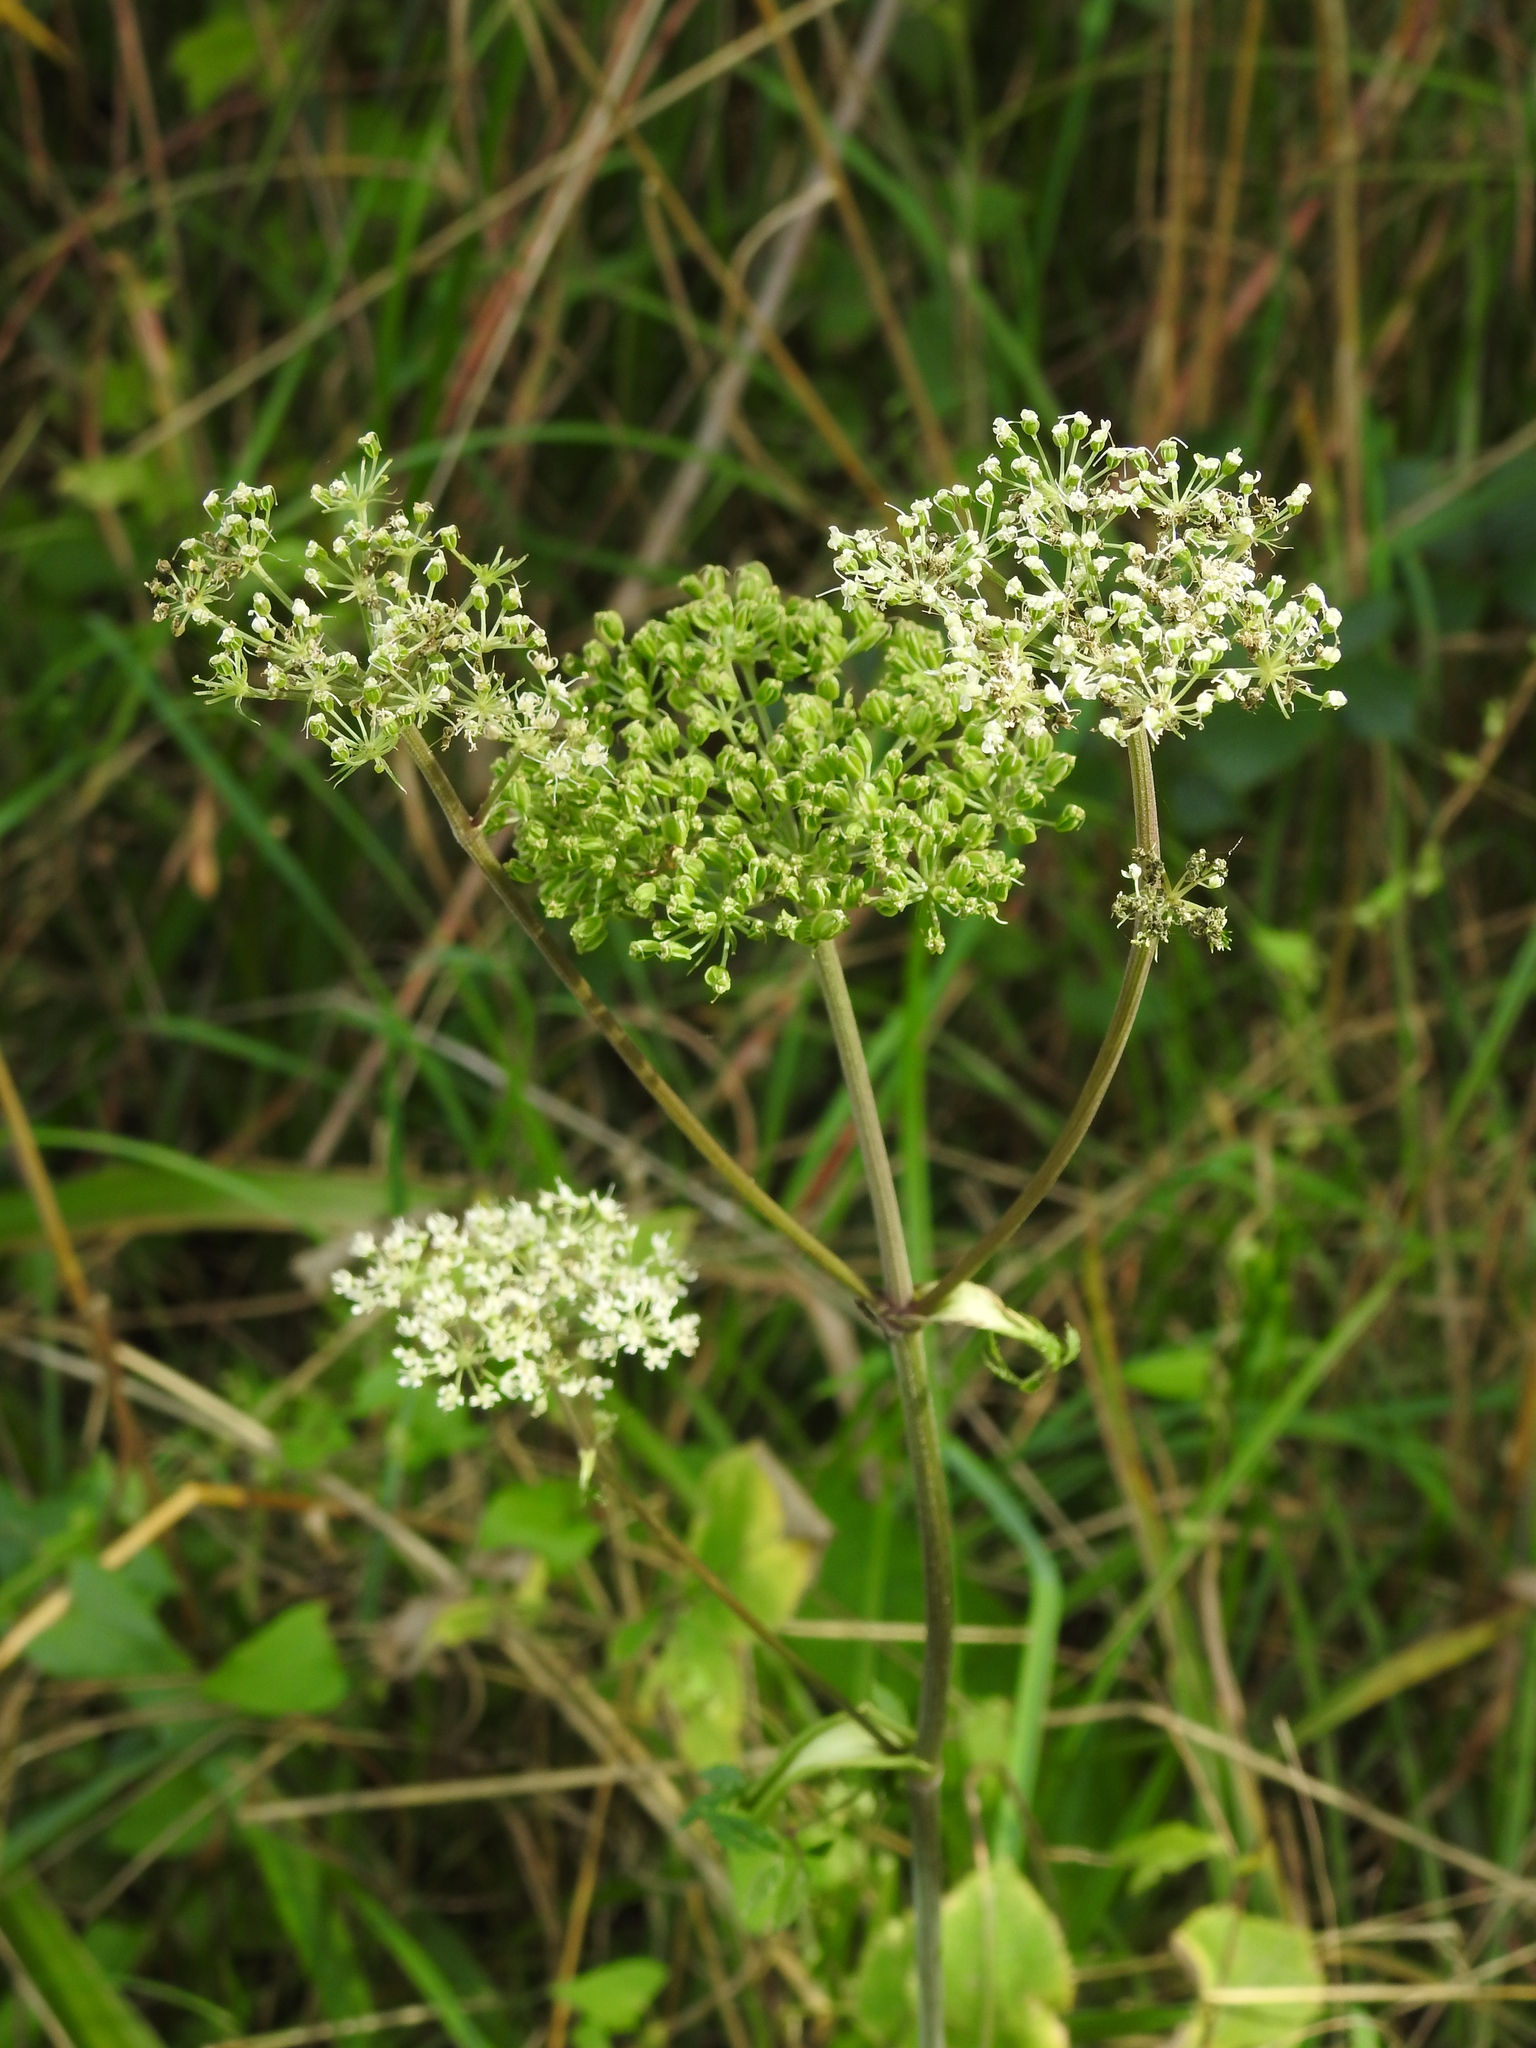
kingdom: Plantae
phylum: Tracheophyta
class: Magnoliopsida
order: Apiales
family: Apiaceae
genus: Angelica
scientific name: Angelica sylvestris
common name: Wild angelica
